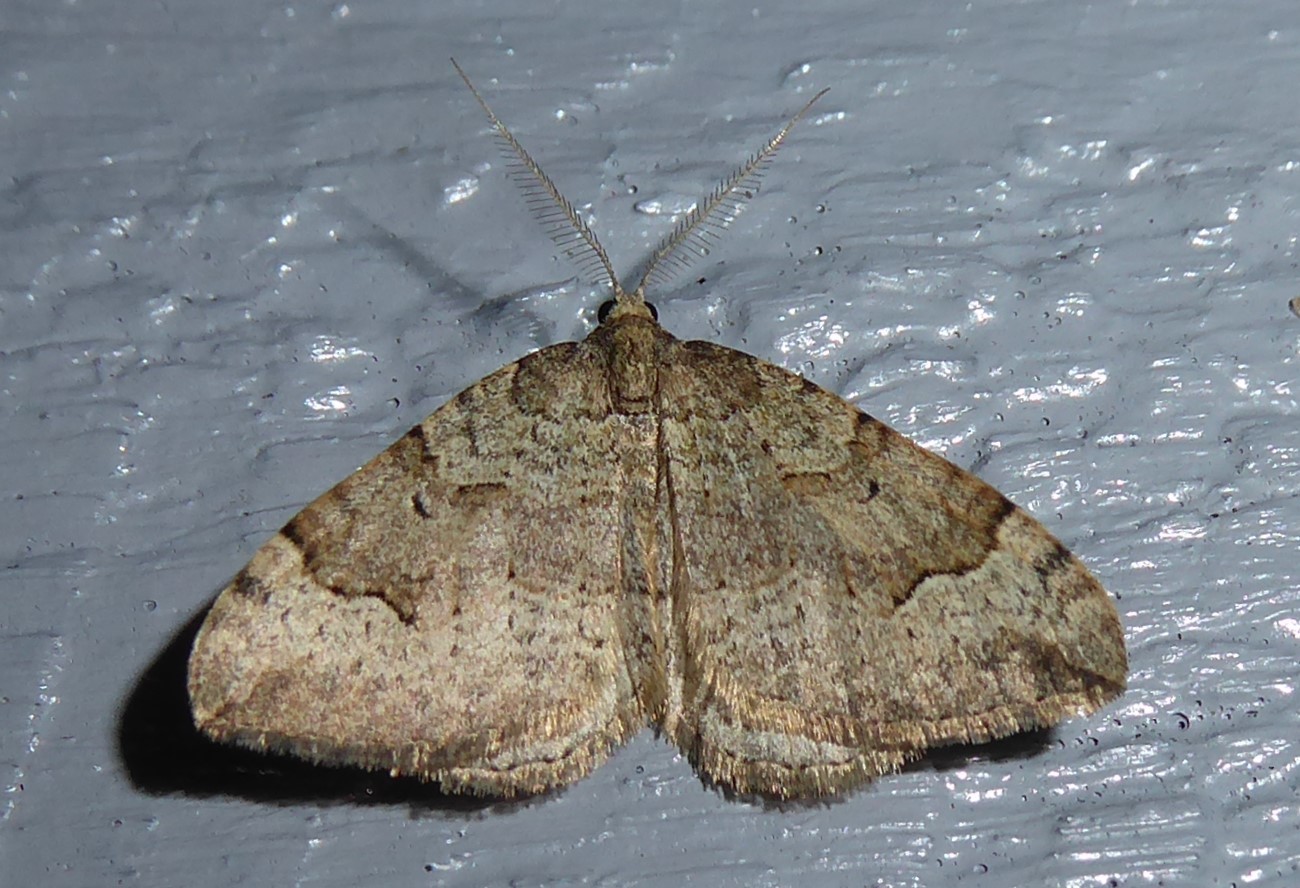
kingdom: Animalia
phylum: Arthropoda
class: Insecta
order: Lepidoptera
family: Geometridae
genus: Epyaxa
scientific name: Epyaxa rosearia
